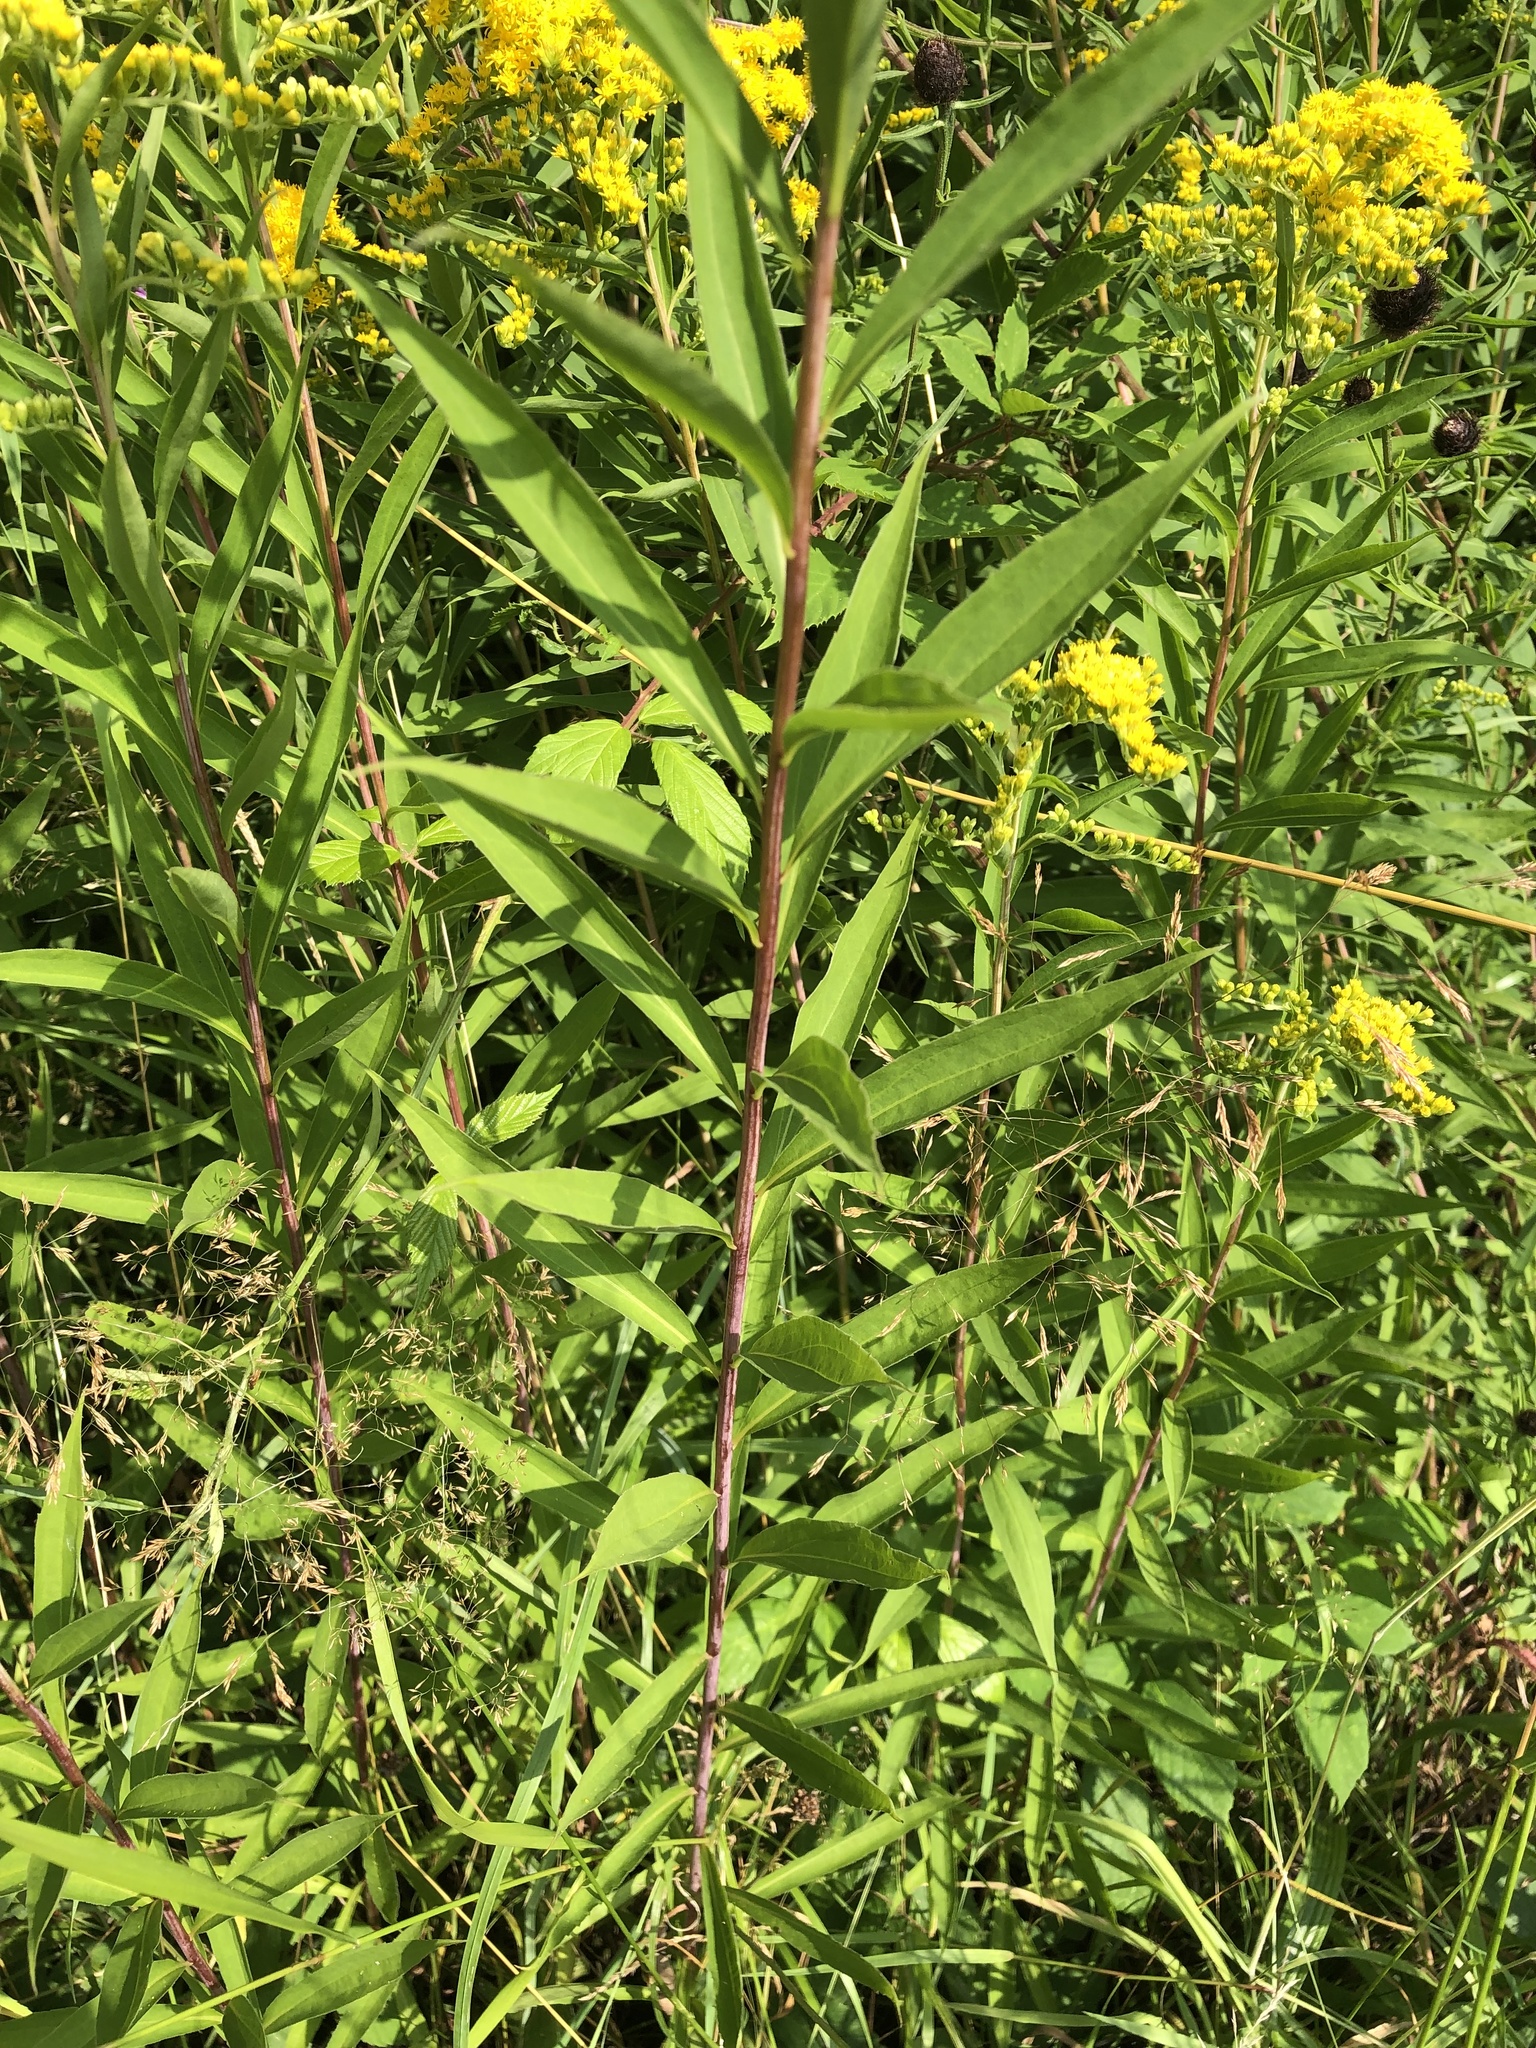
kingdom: Plantae
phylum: Tracheophyta
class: Magnoliopsida
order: Asterales
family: Asteraceae
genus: Solidago
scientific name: Solidago gigantea
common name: Giant goldenrod
